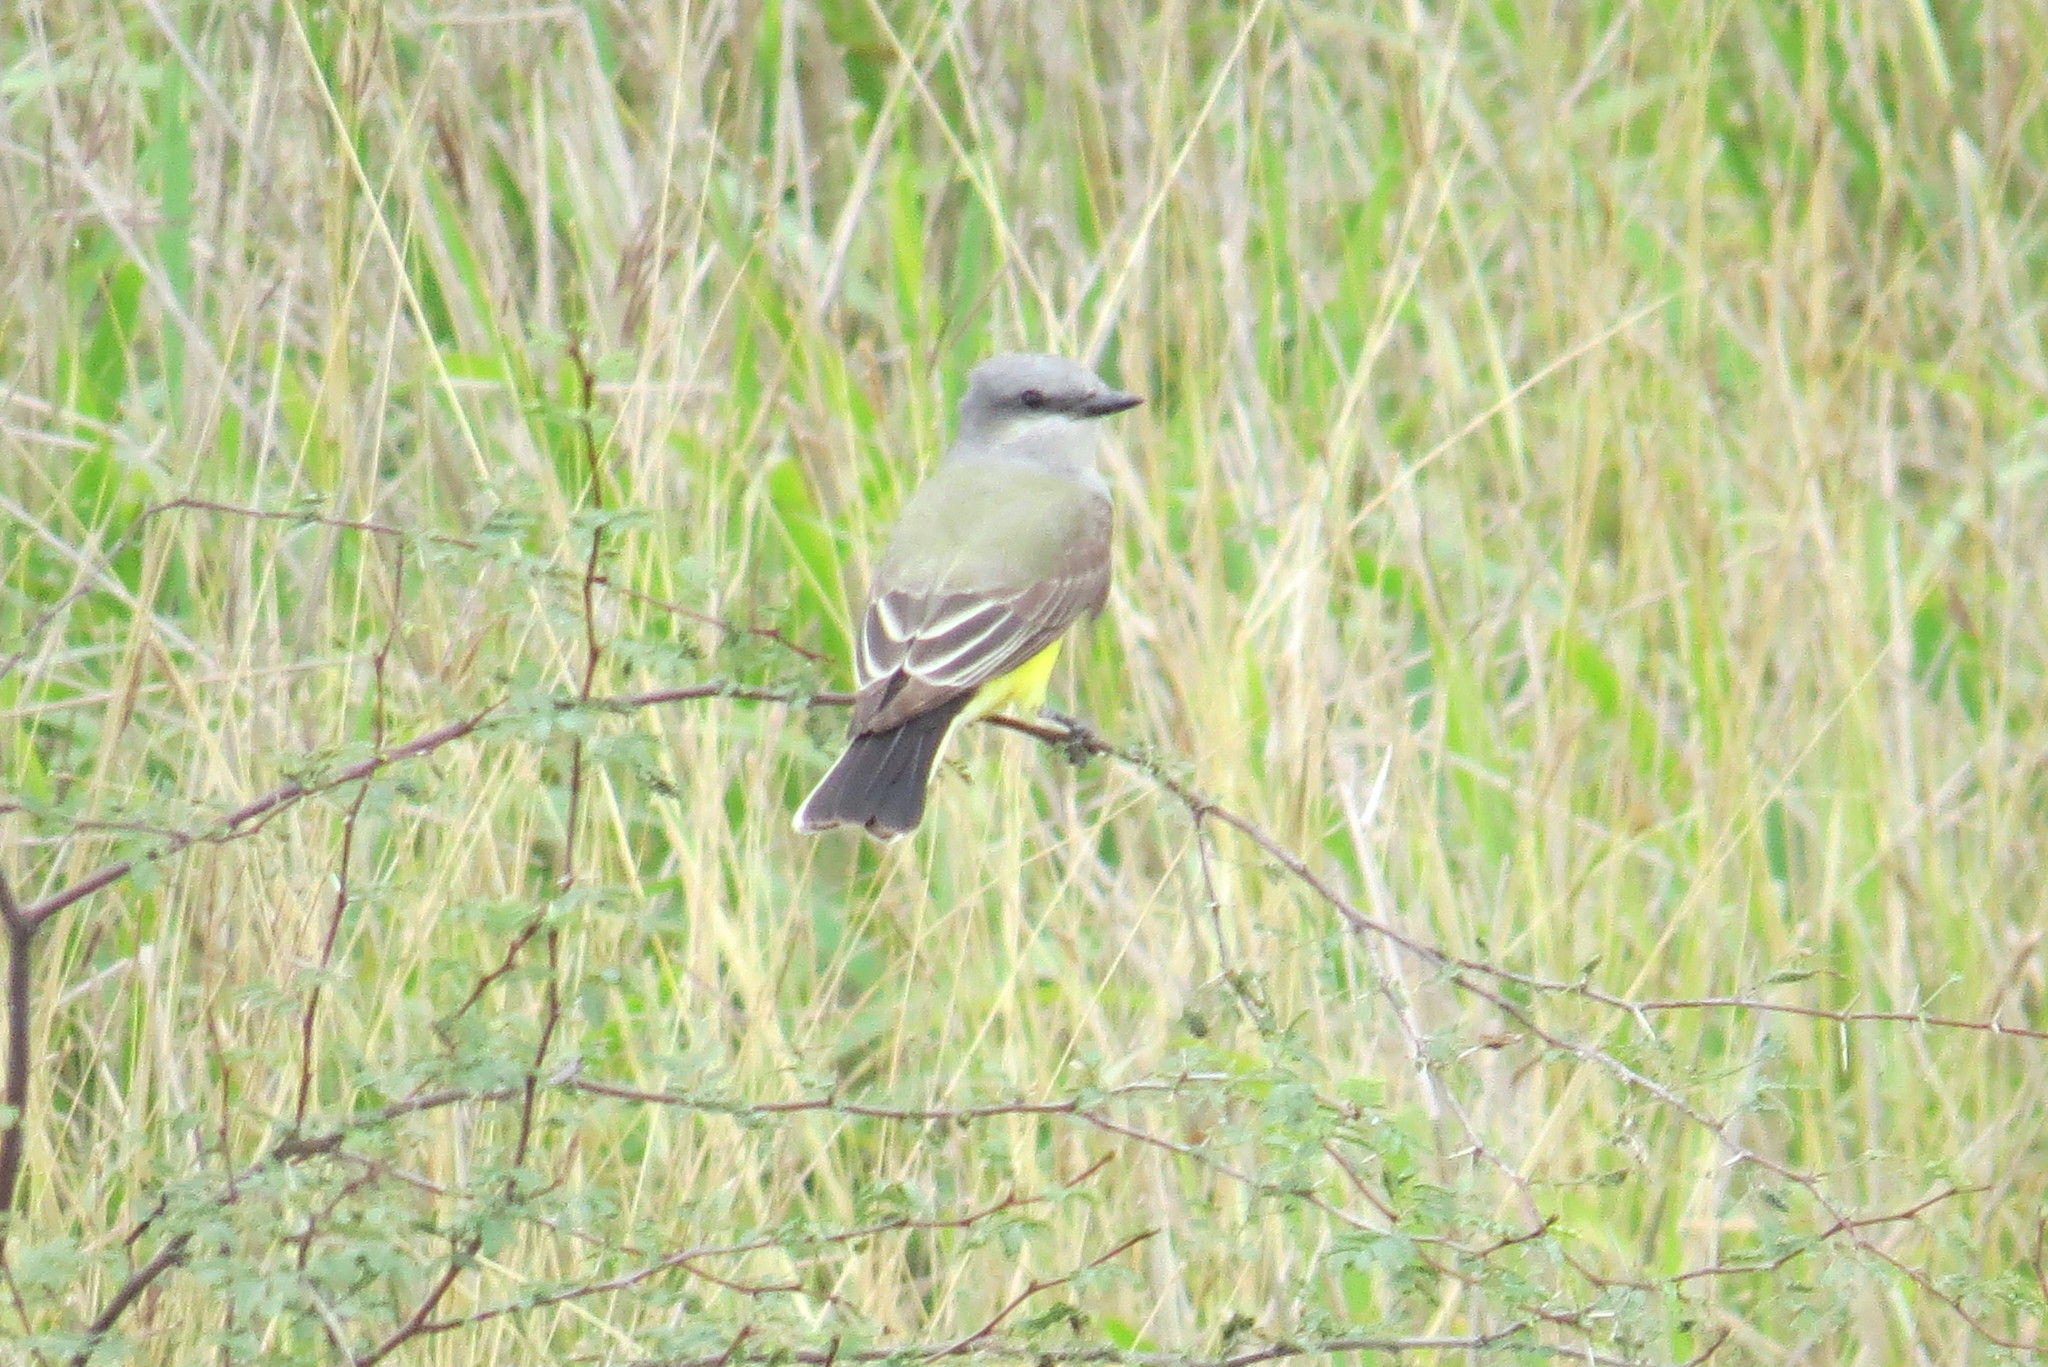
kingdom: Animalia
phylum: Chordata
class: Aves
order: Passeriformes
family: Tyrannidae
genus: Tyrannus
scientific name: Tyrannus verticalis
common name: Western kingbird
